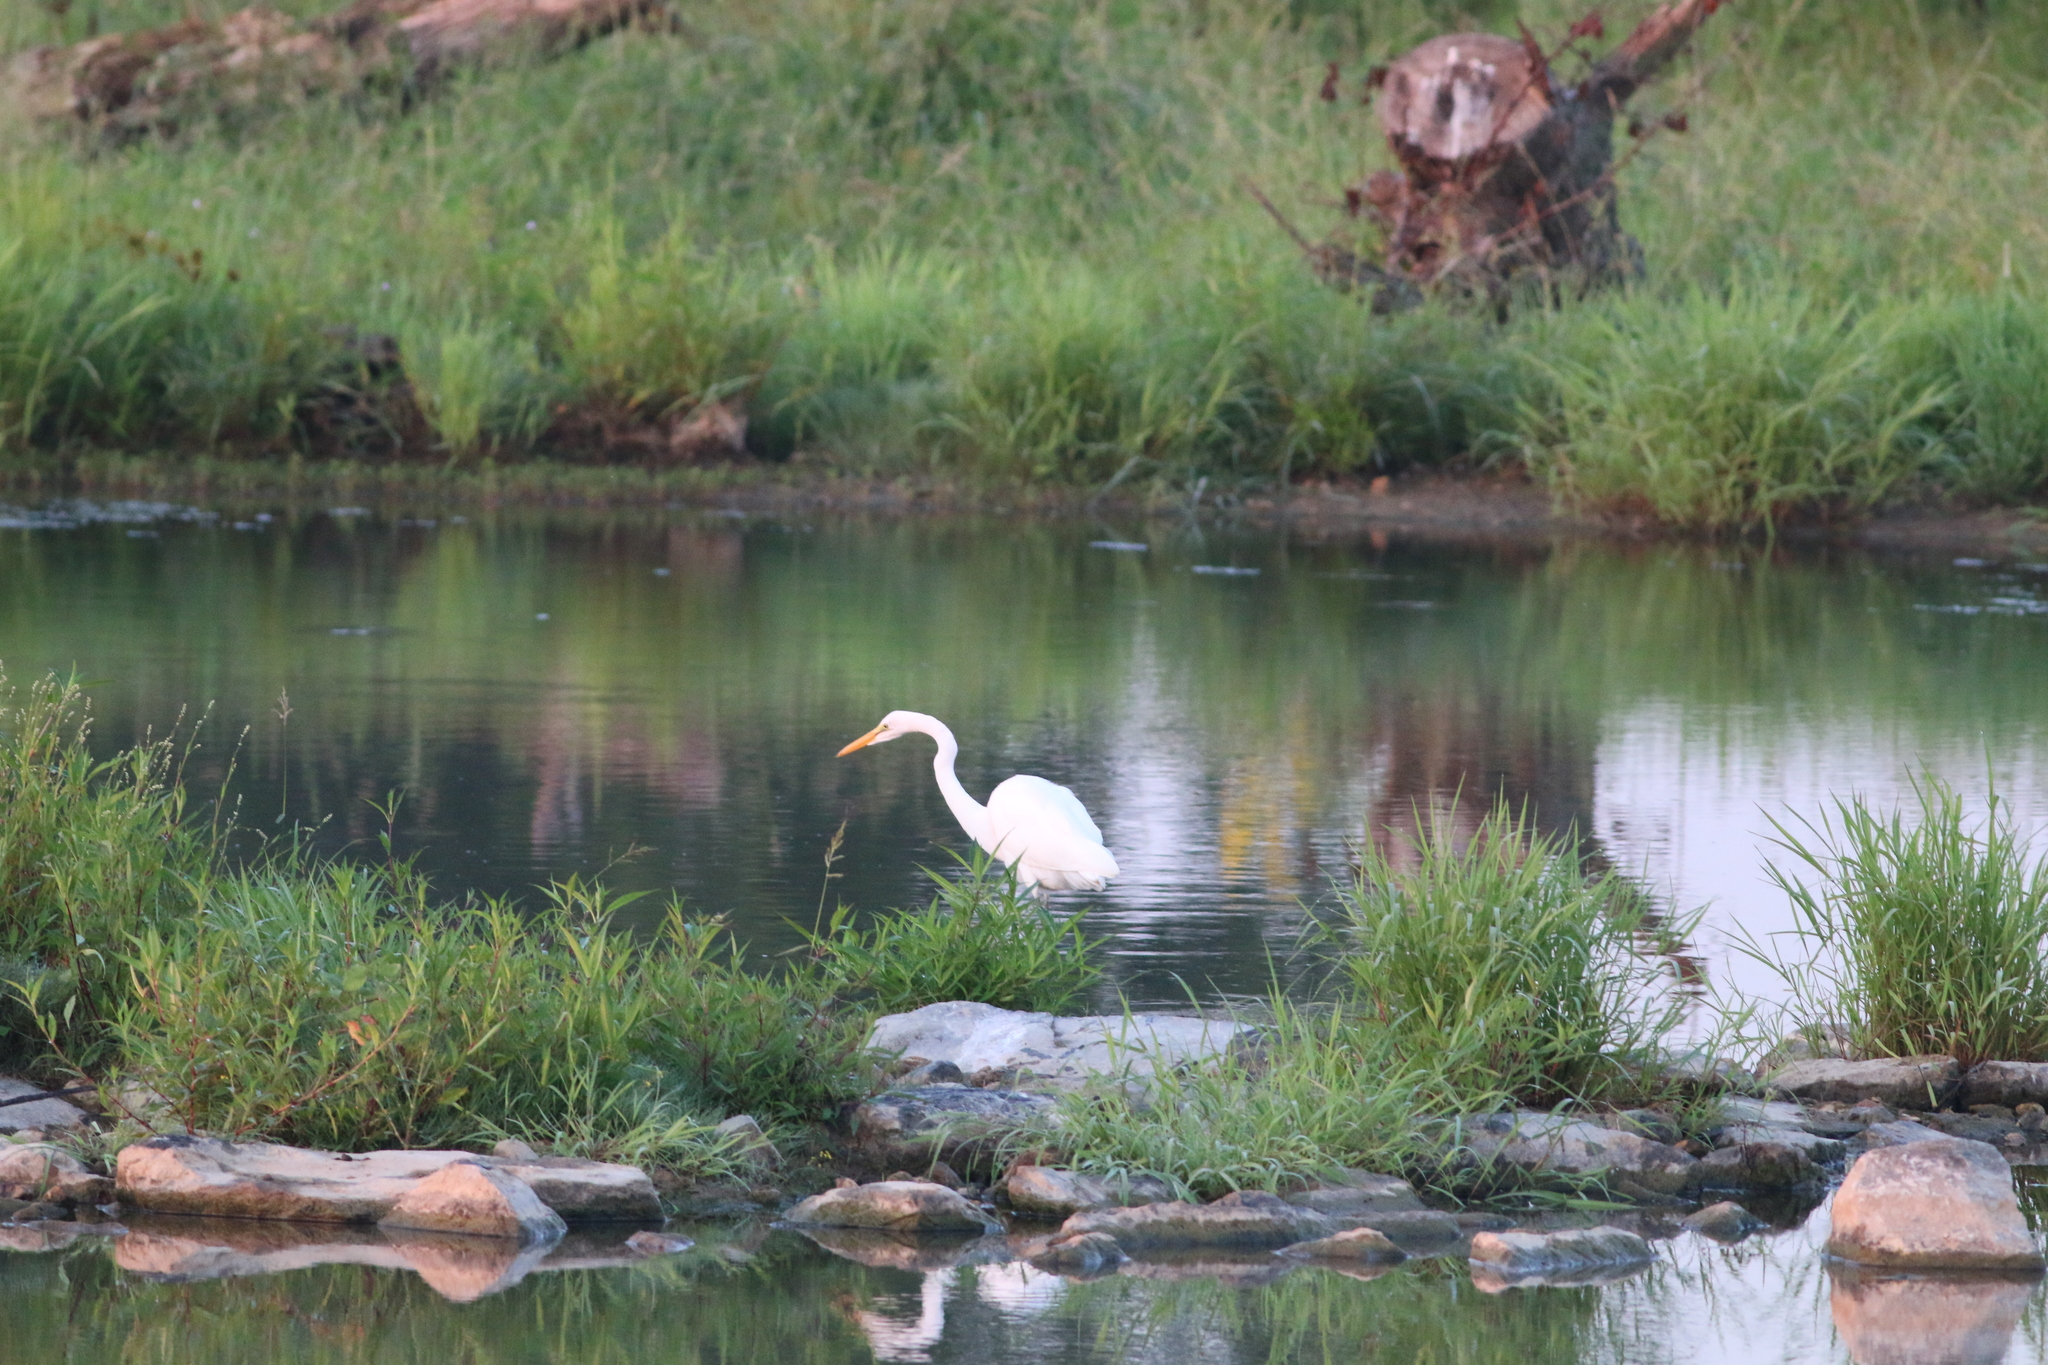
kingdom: Animalia
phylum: Chordata
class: Aves
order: Pelecaniformes
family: Ardeidae
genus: Ardea
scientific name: Ardea alba
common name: Great egret
